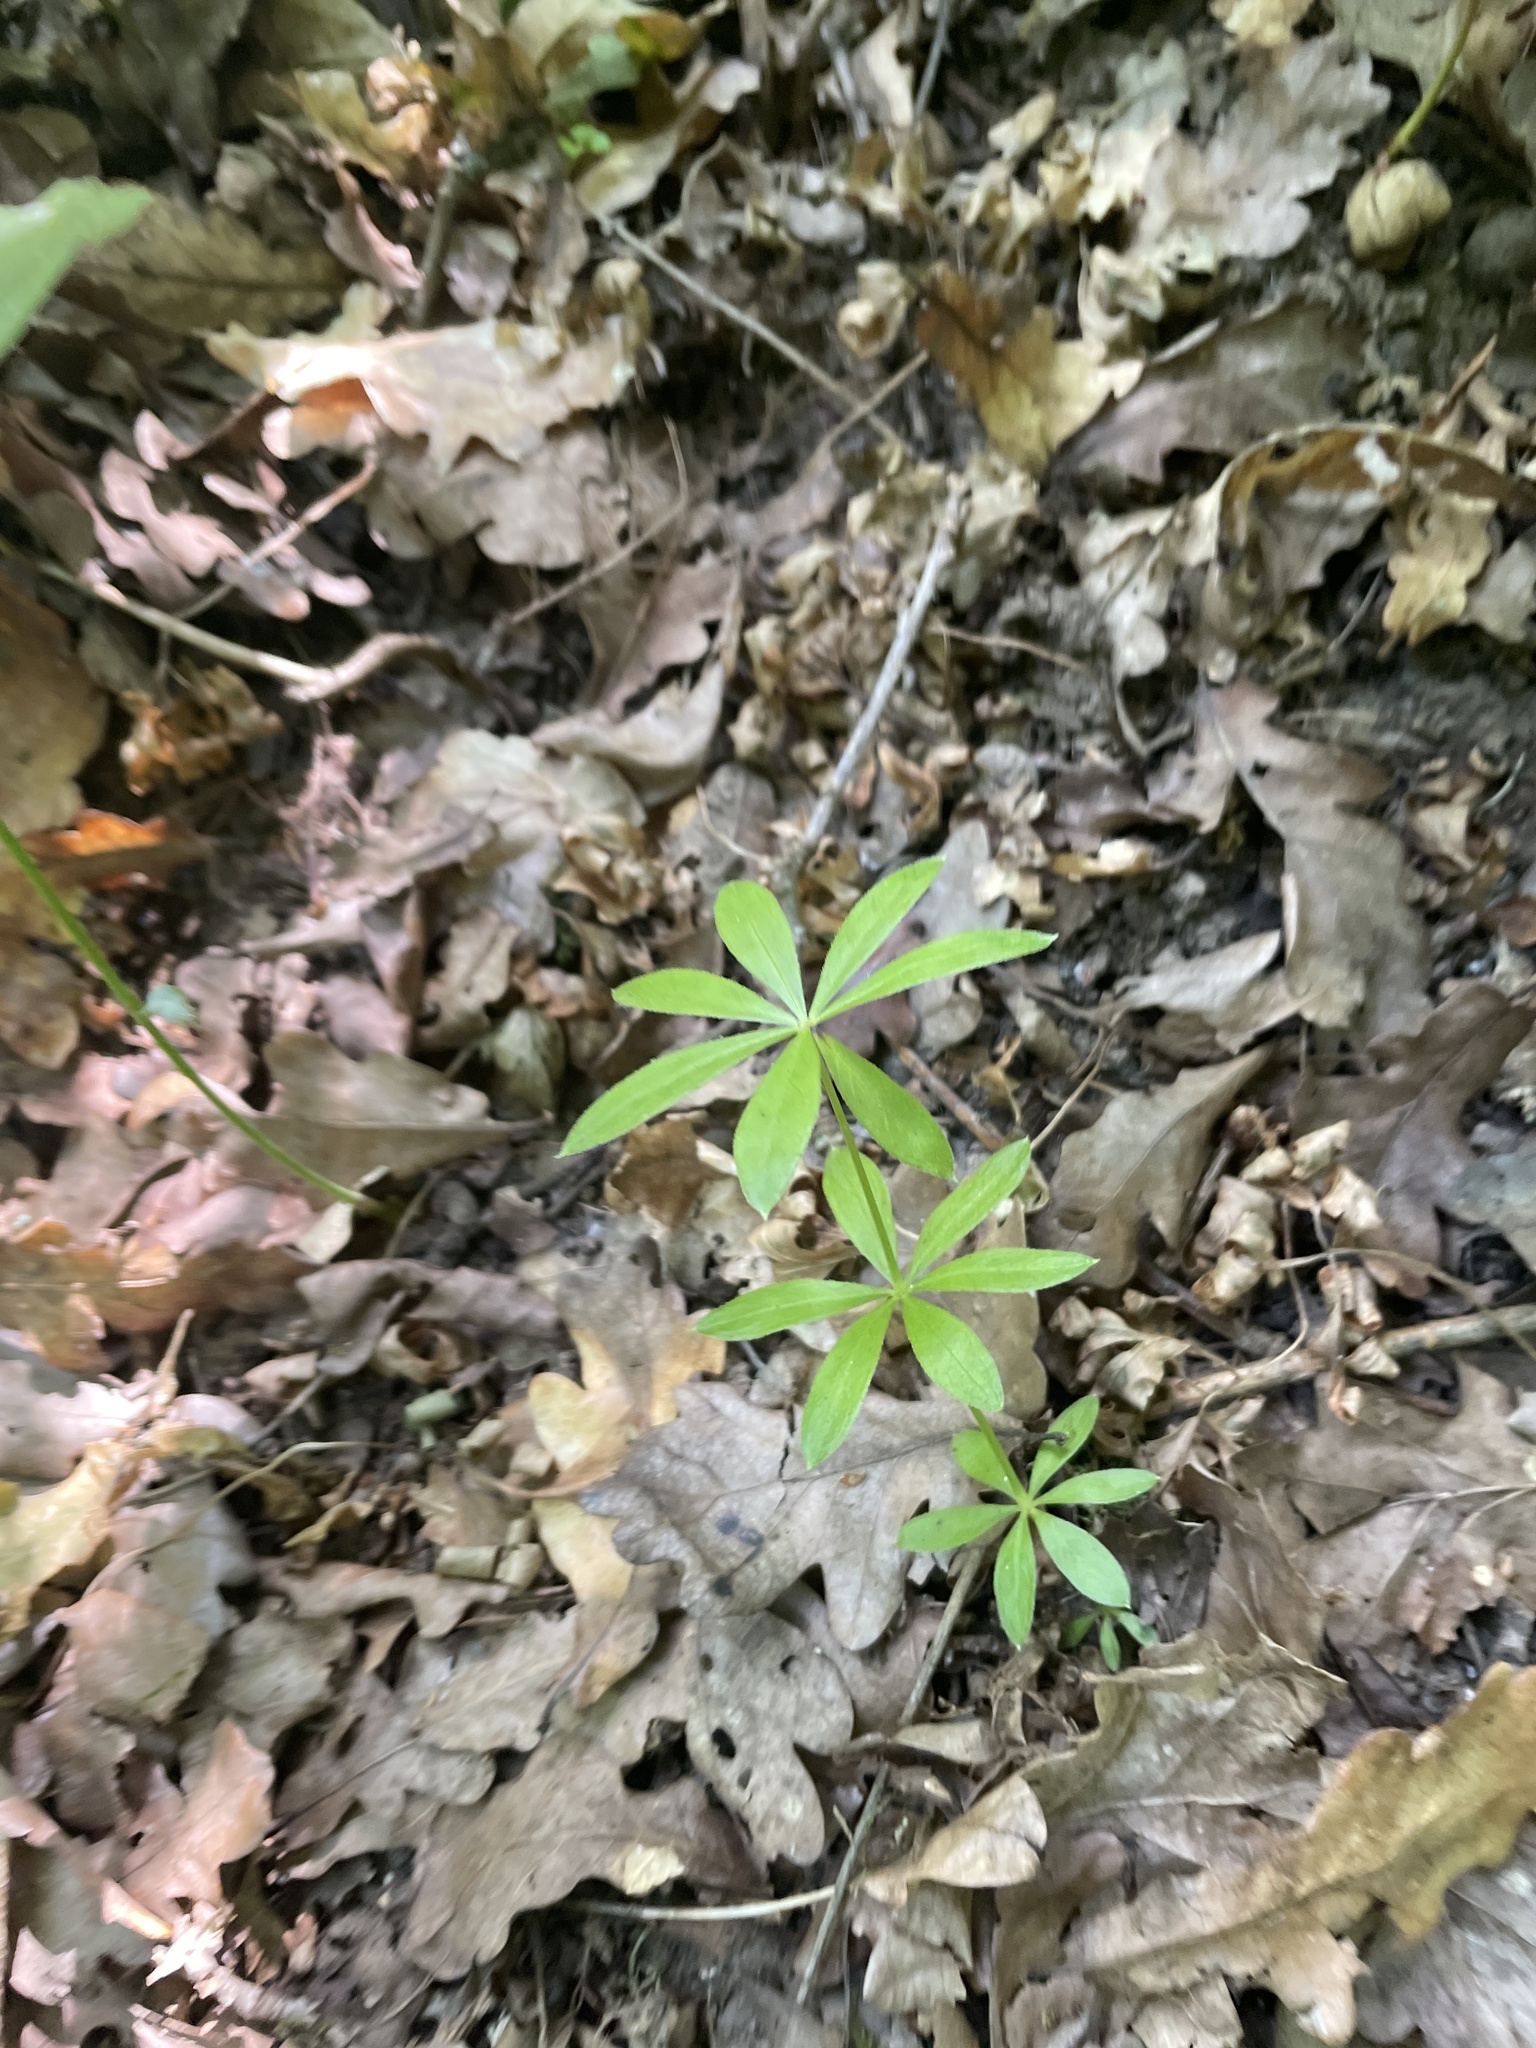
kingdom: Plantae
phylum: Tracheophyta
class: Magnoliopsida
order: Gentianales
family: Rubiaceae
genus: Galium
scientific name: Galium odoratum
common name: Sweet woodruff
